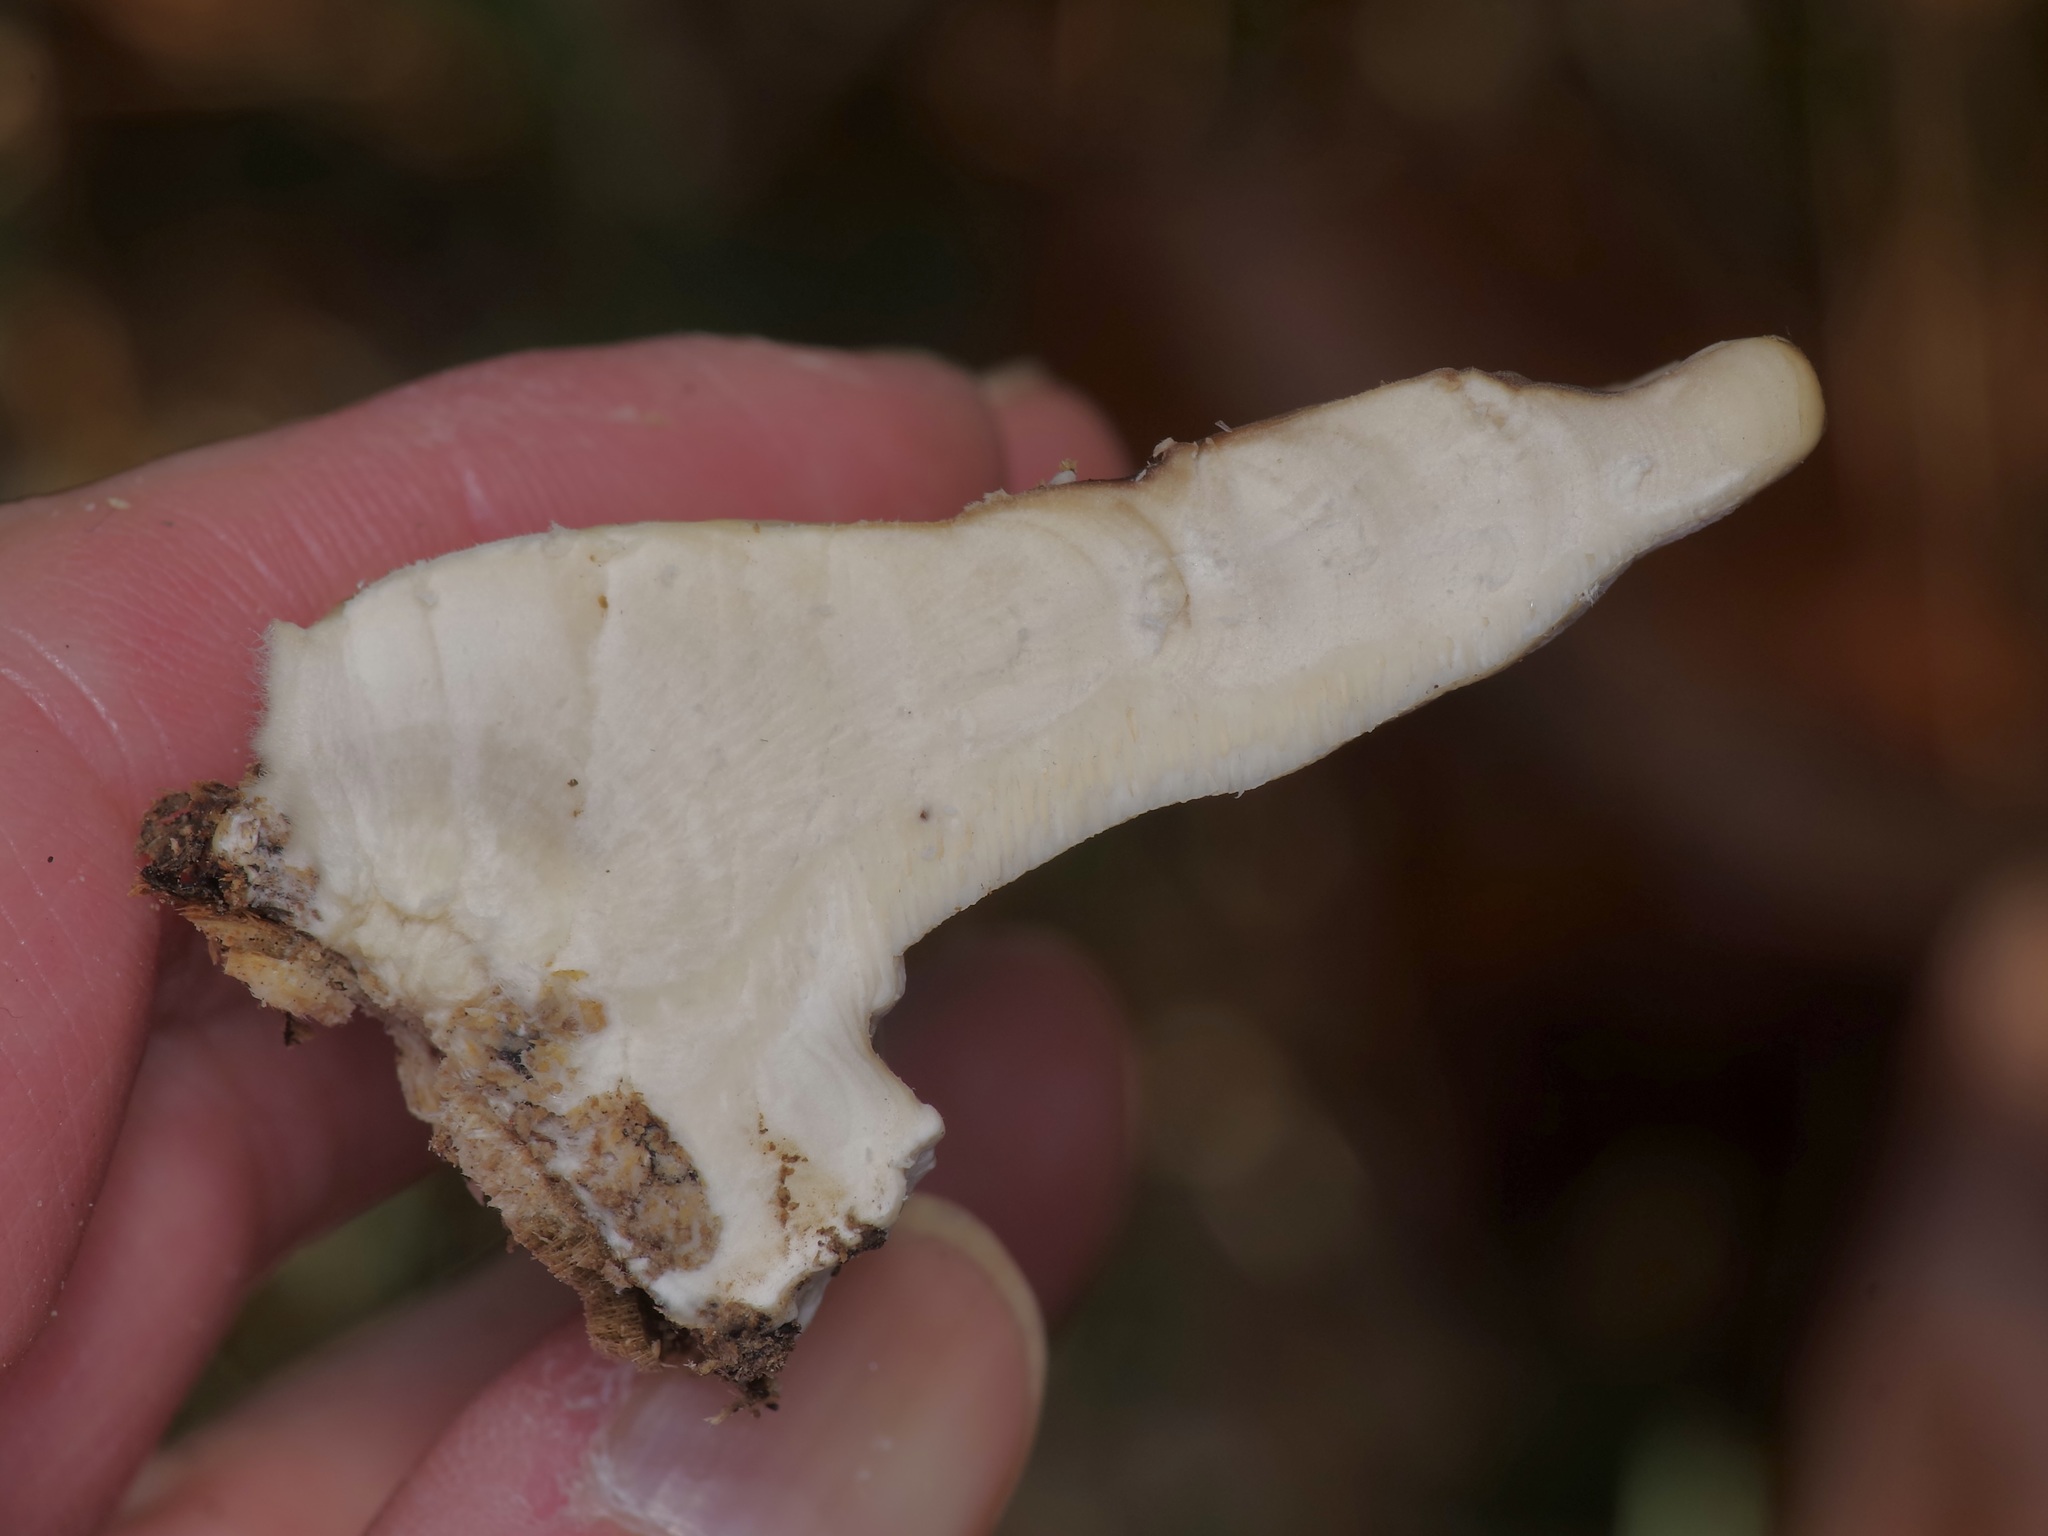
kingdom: Fungi
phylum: Basidiomycota
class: Agaricomycetes
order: Polyporales
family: Polyporaceae
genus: Trametes
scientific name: Trametes lactinea
